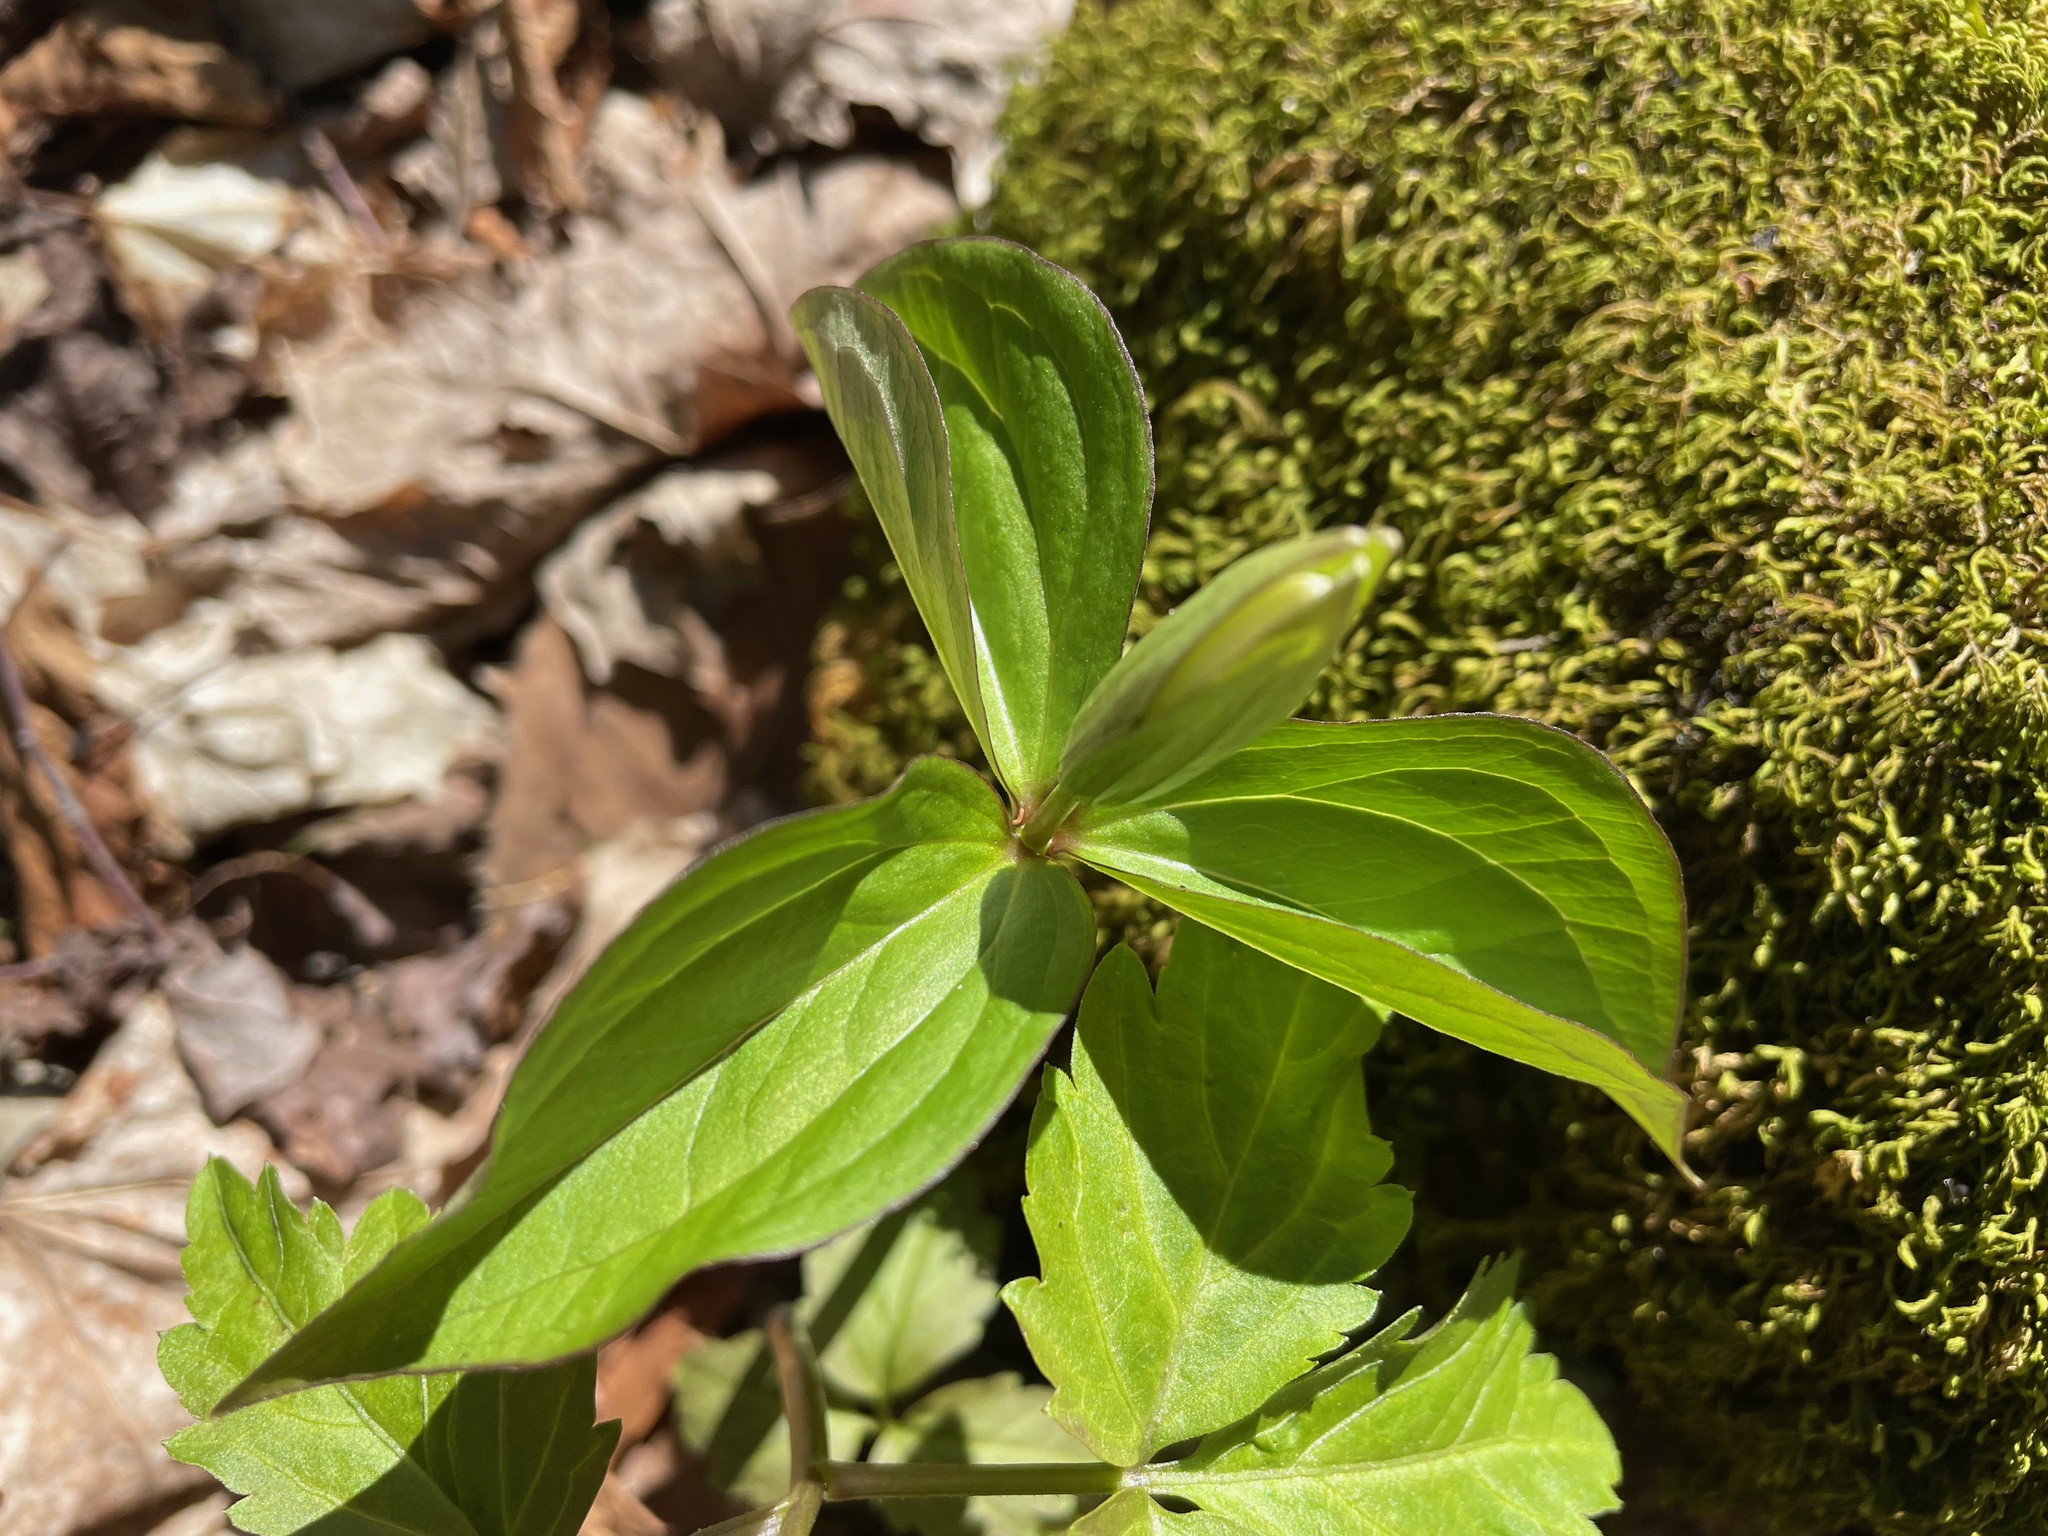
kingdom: Plantae
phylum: Tracheophyta
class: Liliopsida
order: Liliales
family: Melanthiaceae
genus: Trillium
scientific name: Trillium grandiflorum
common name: Great white trillium
